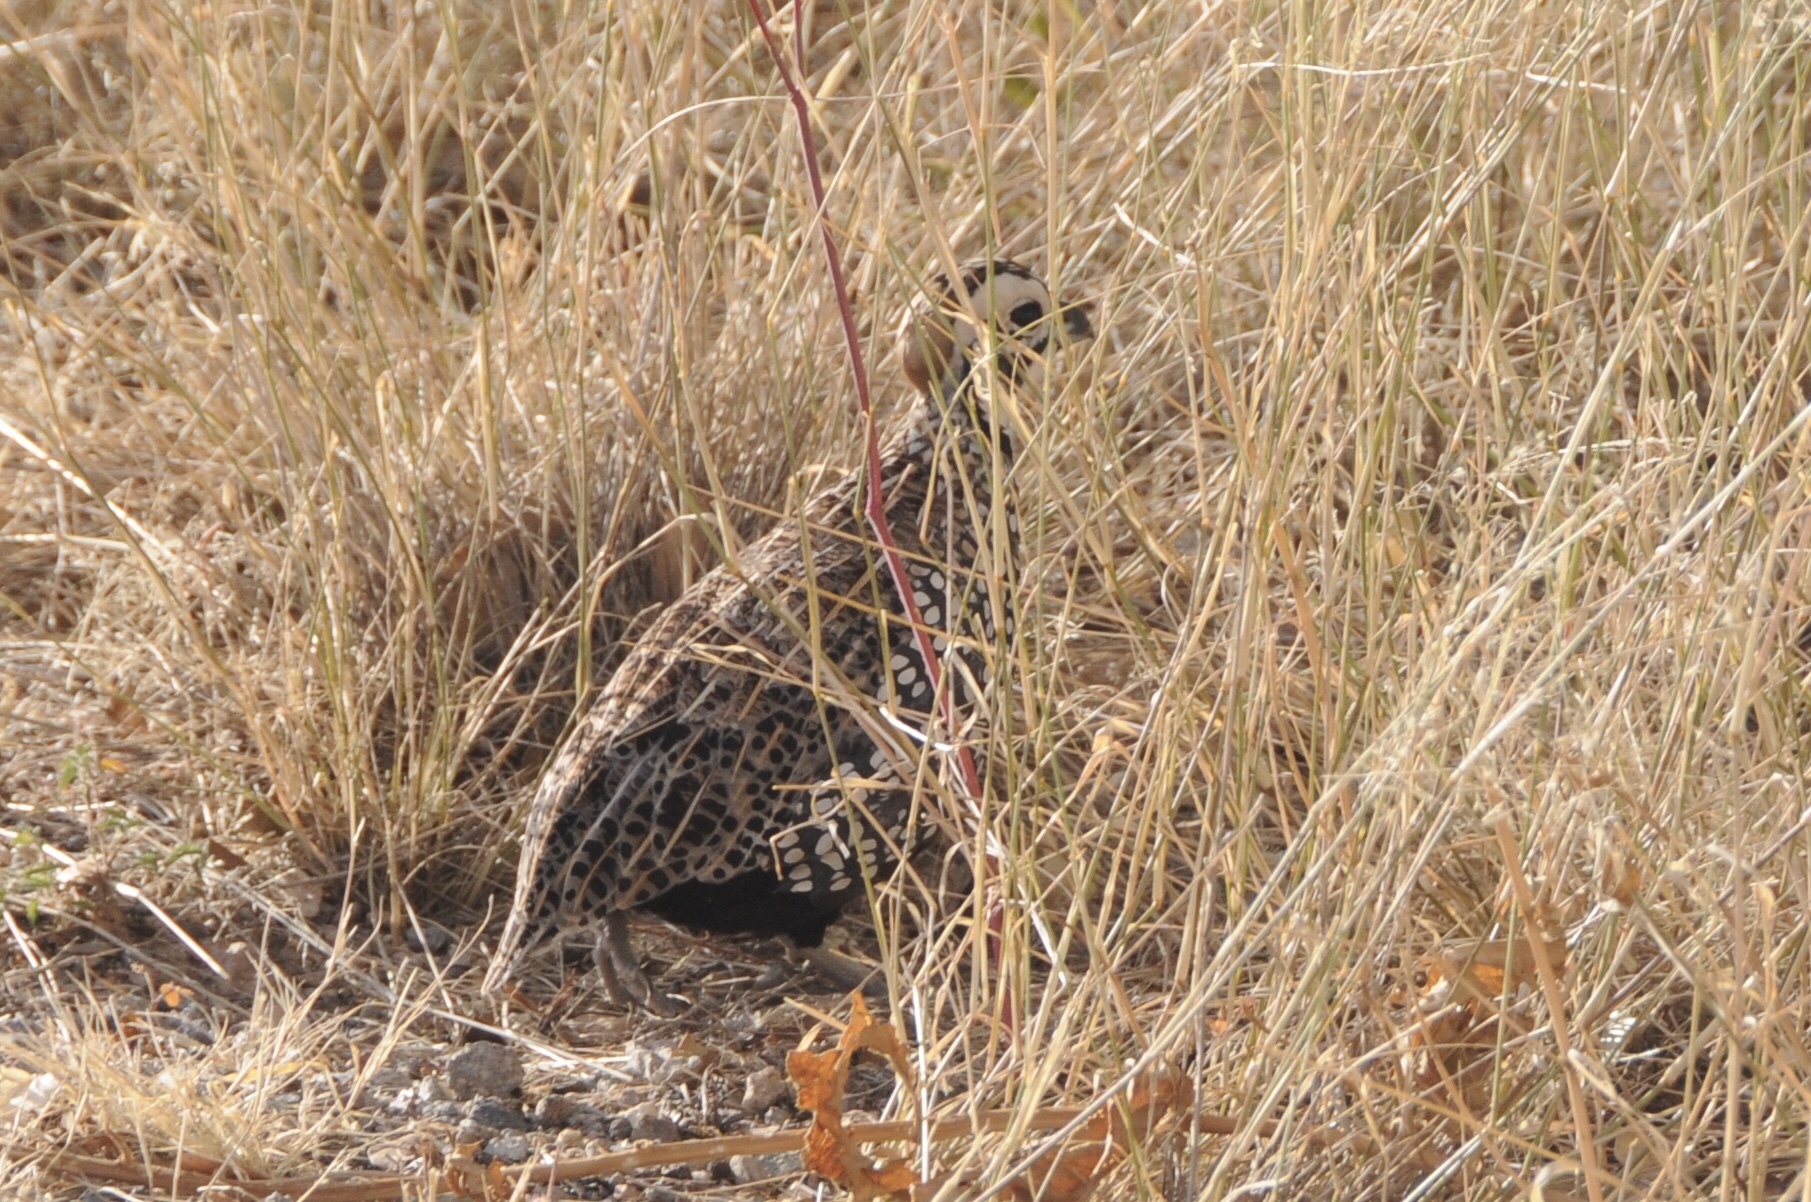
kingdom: Animalia
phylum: Chordata
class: Aves
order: Galliformes
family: Odontophoridae
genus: Cyrtonyx
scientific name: Cyrtonyx montezumae
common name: Montezuma quail
